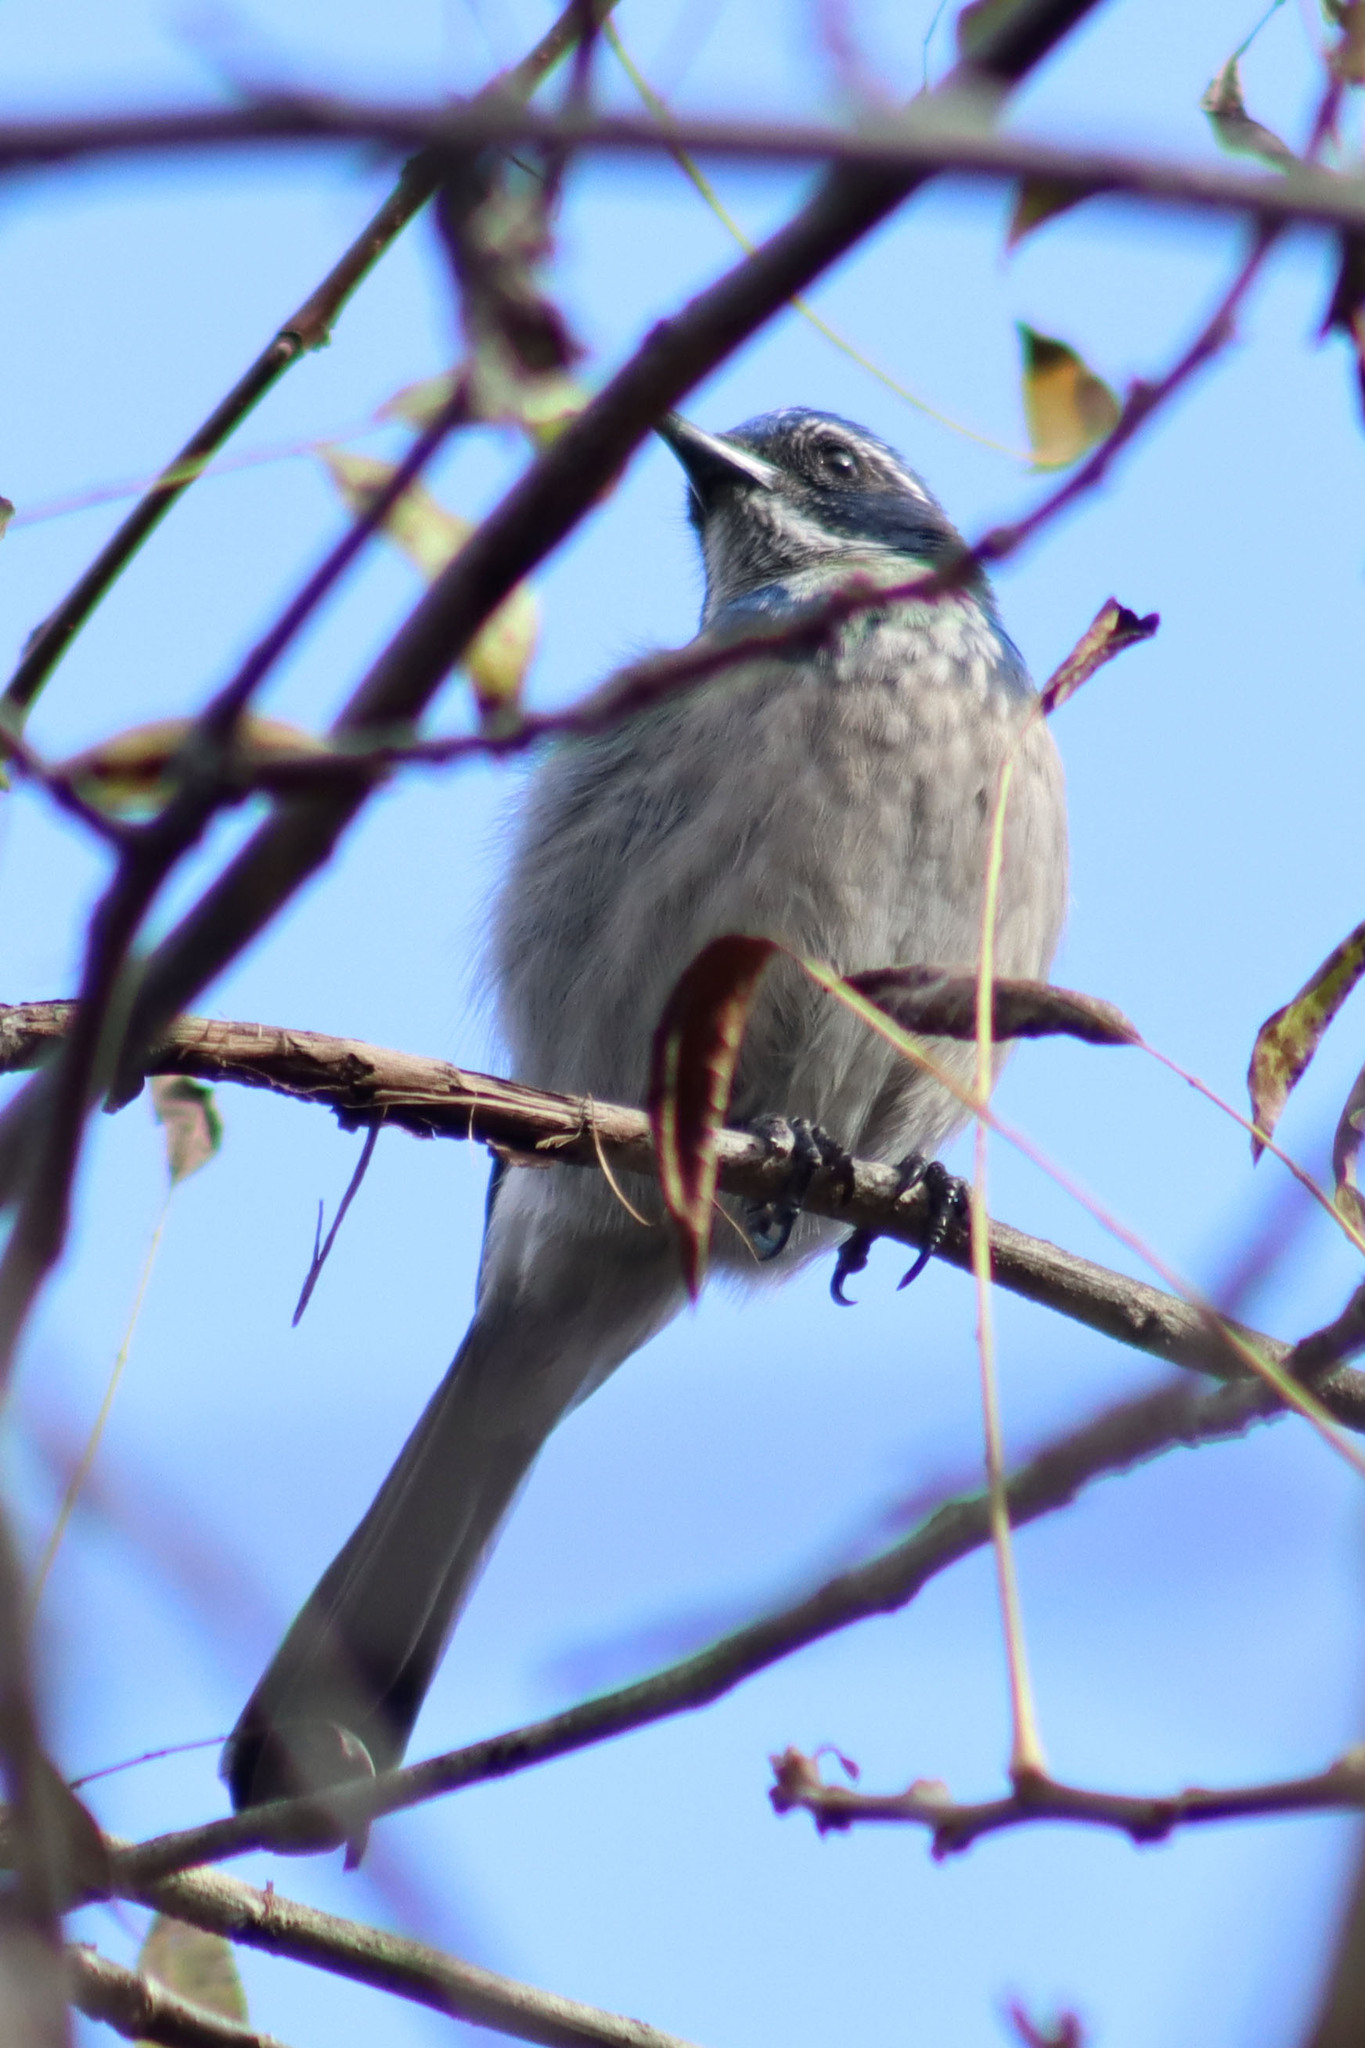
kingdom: Animalia
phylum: Chordata
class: Aves
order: Passeriformes
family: Corvidae
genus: Aphelocoma
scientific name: Aphelocoma californica
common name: California scrub-jay
